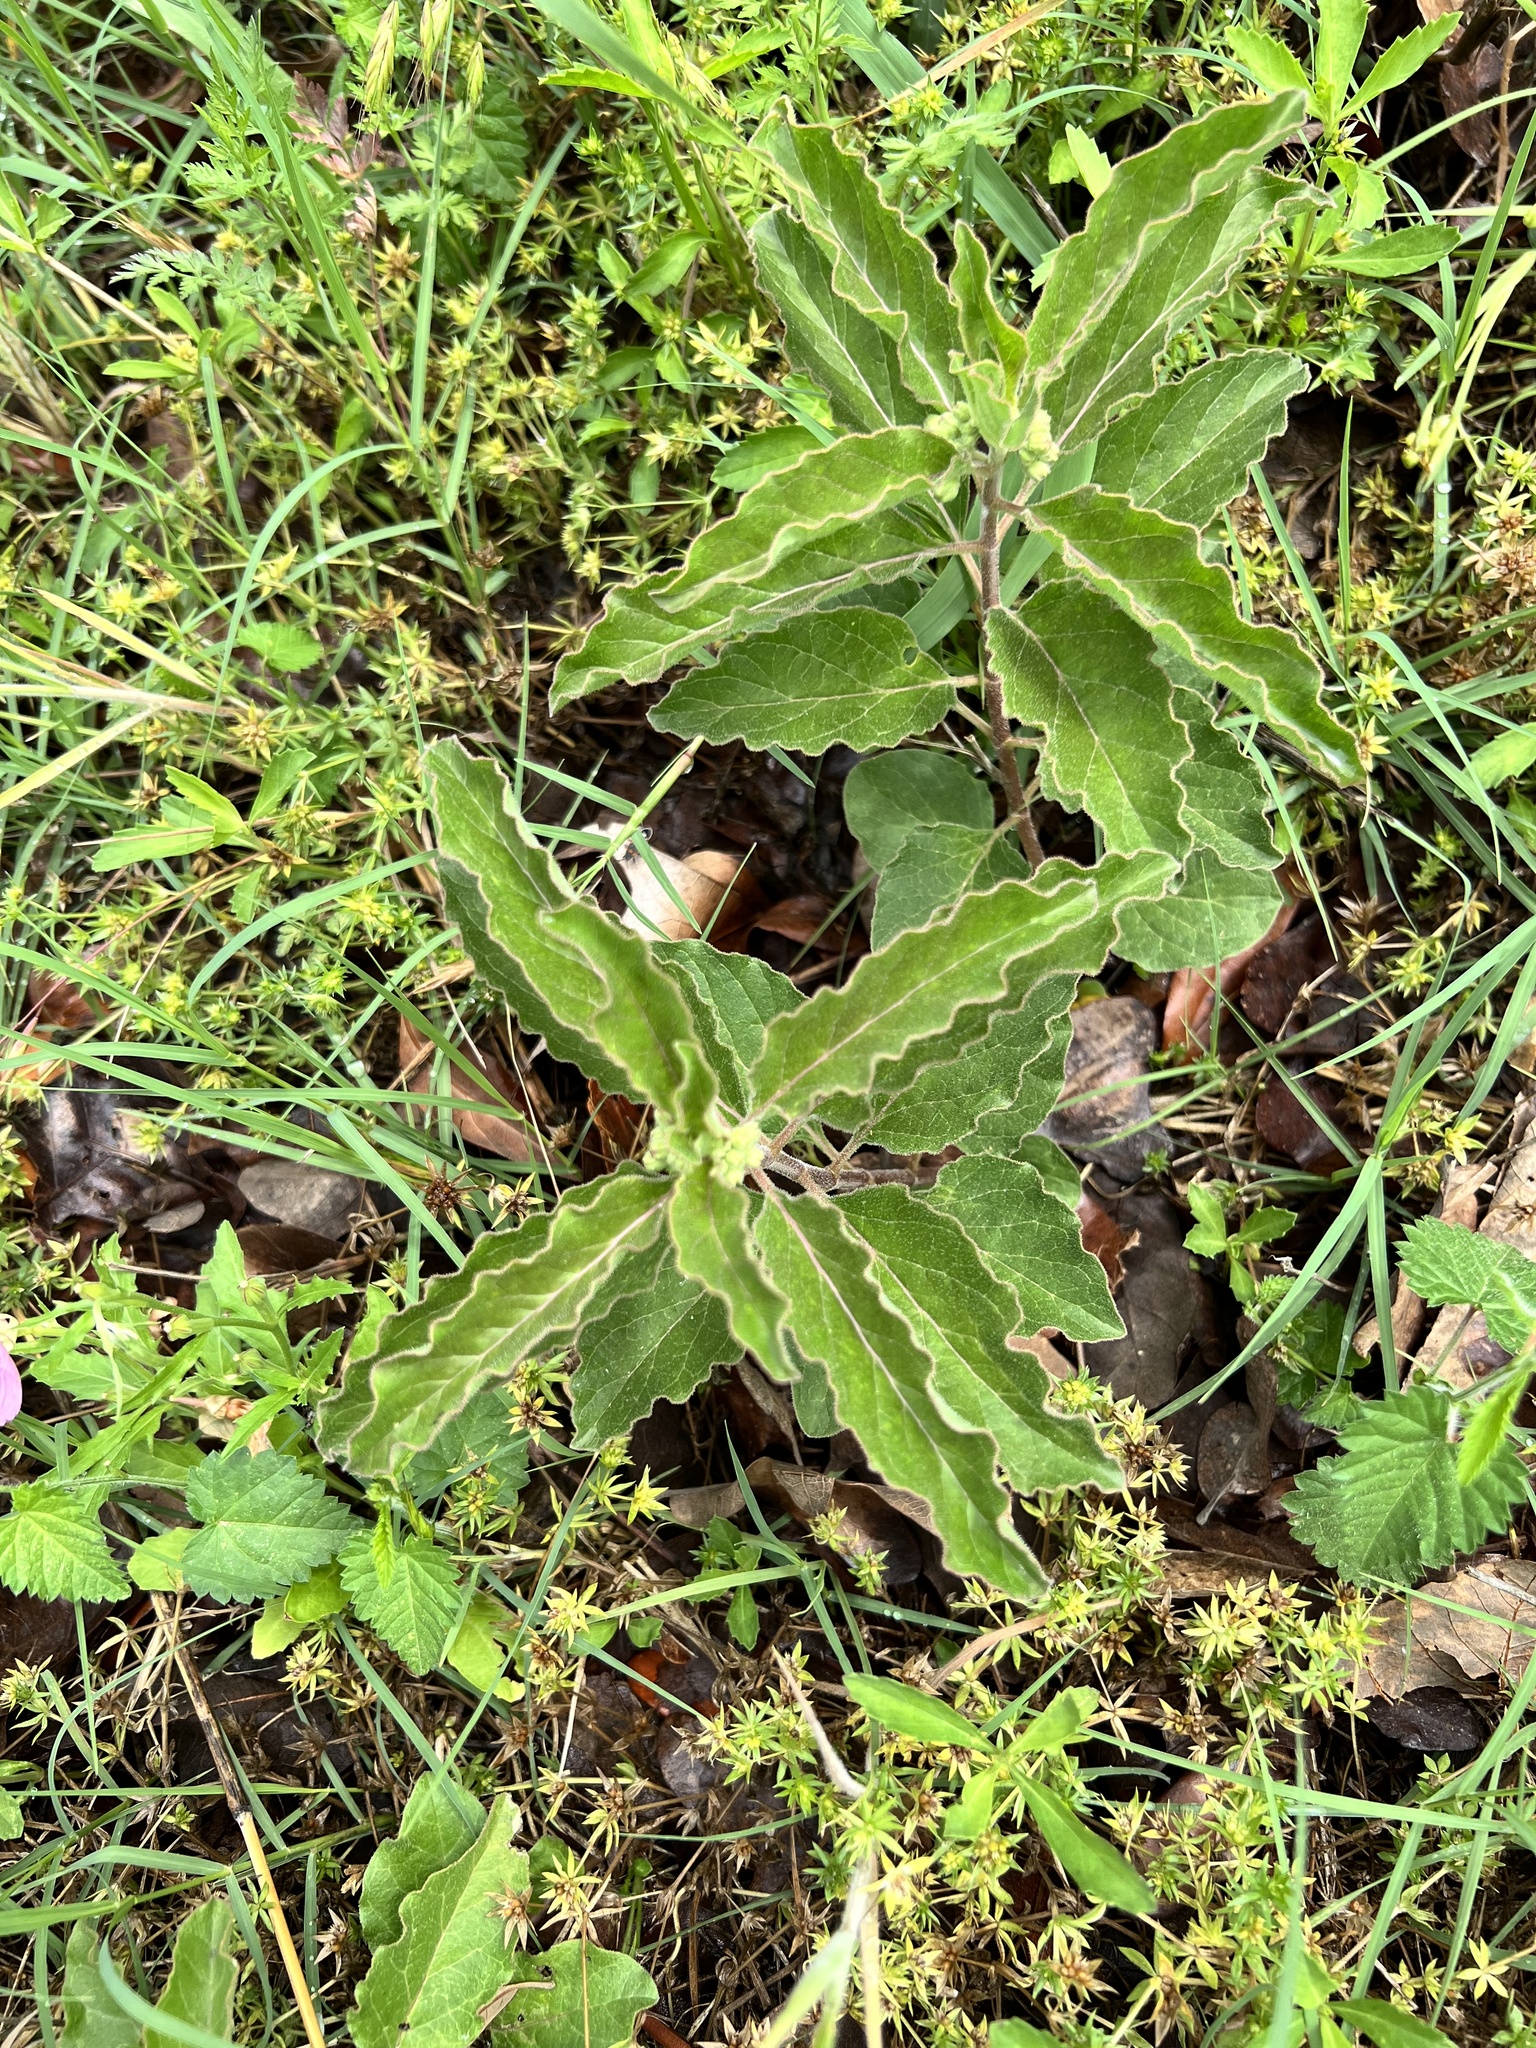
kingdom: Plantae
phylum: Tracheophyta
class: Magnoliopsida
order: Gentianales
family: Apocynaceae
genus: Asclepias
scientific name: Asclepias oenotheroides
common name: Zizotes milkweed
